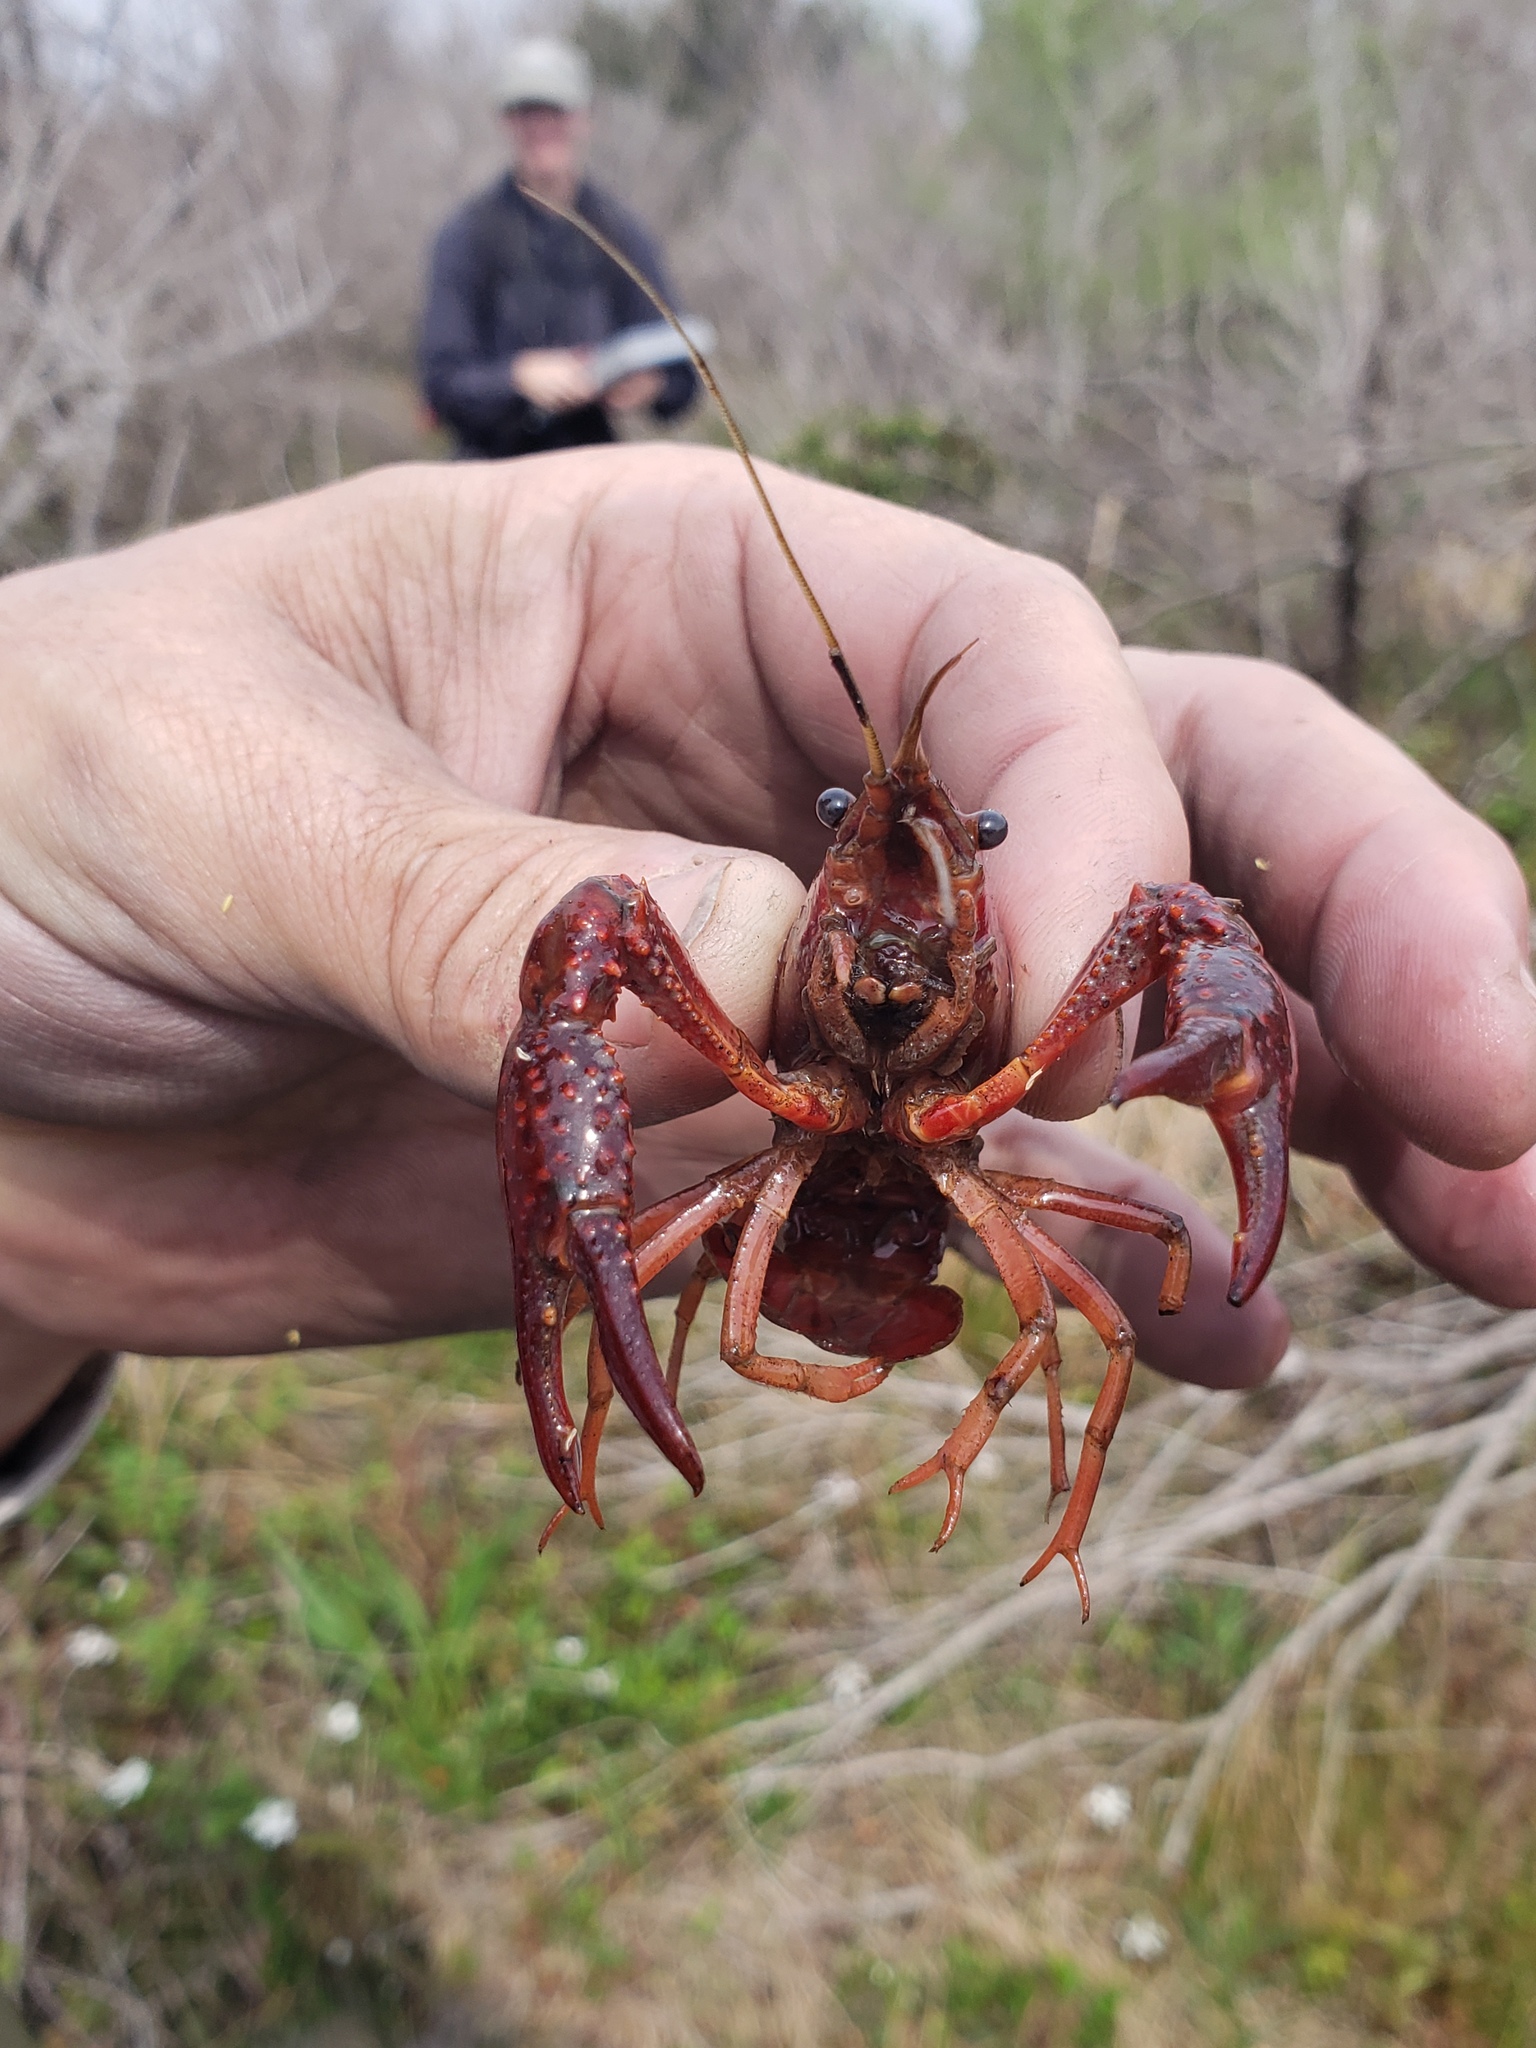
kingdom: Animalia
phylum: Arthropoda
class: Malacostraca
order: Decapoda
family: Cambaridae
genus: Procambarus
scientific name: Procambarus clarkii
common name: Red swamp crayfish
